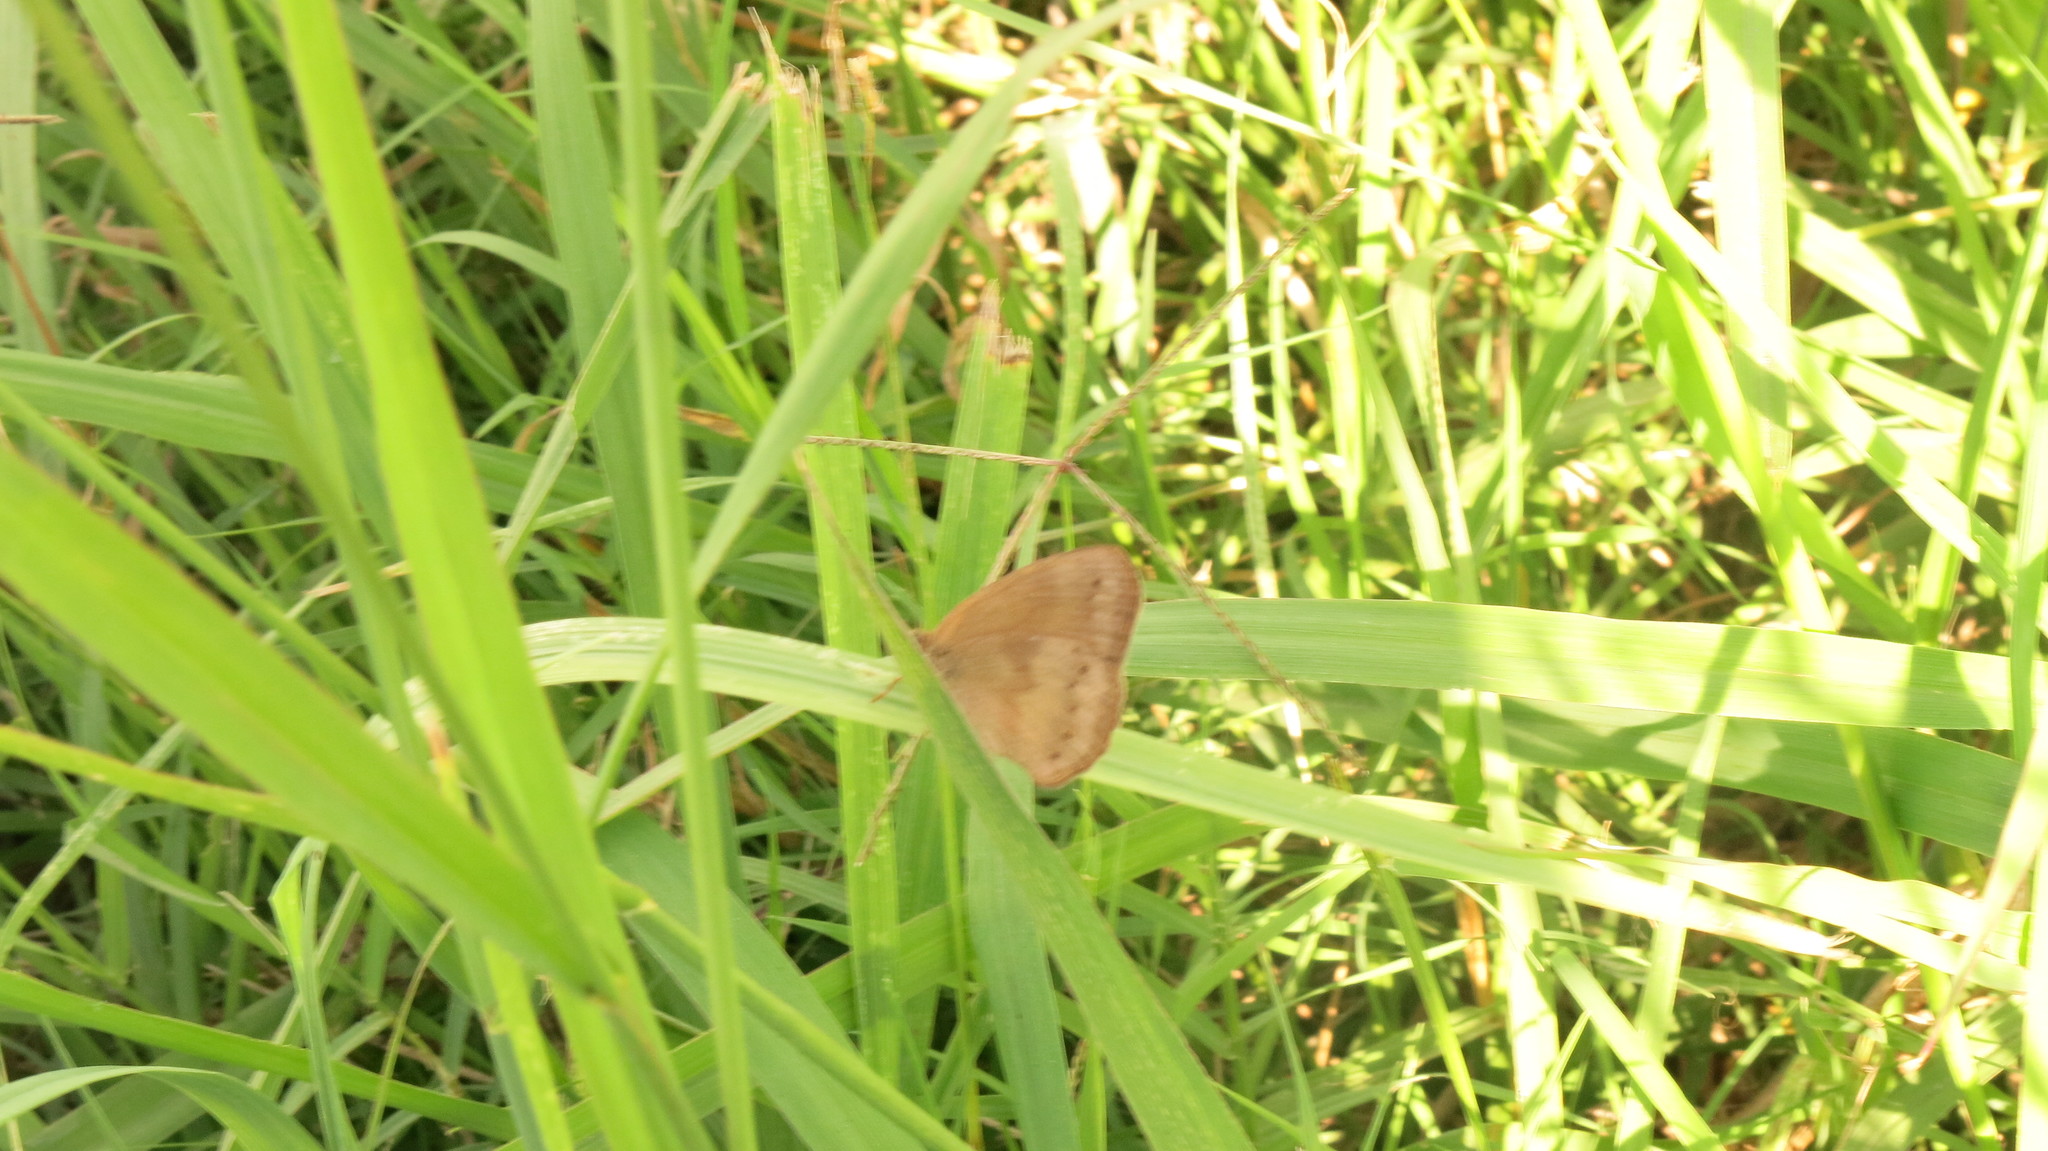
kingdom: Animalia
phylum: Arthropoda
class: Insecta
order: Lepidoptera
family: Nymphalidae
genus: Yphthimoides
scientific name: Yphthimoides celmis
